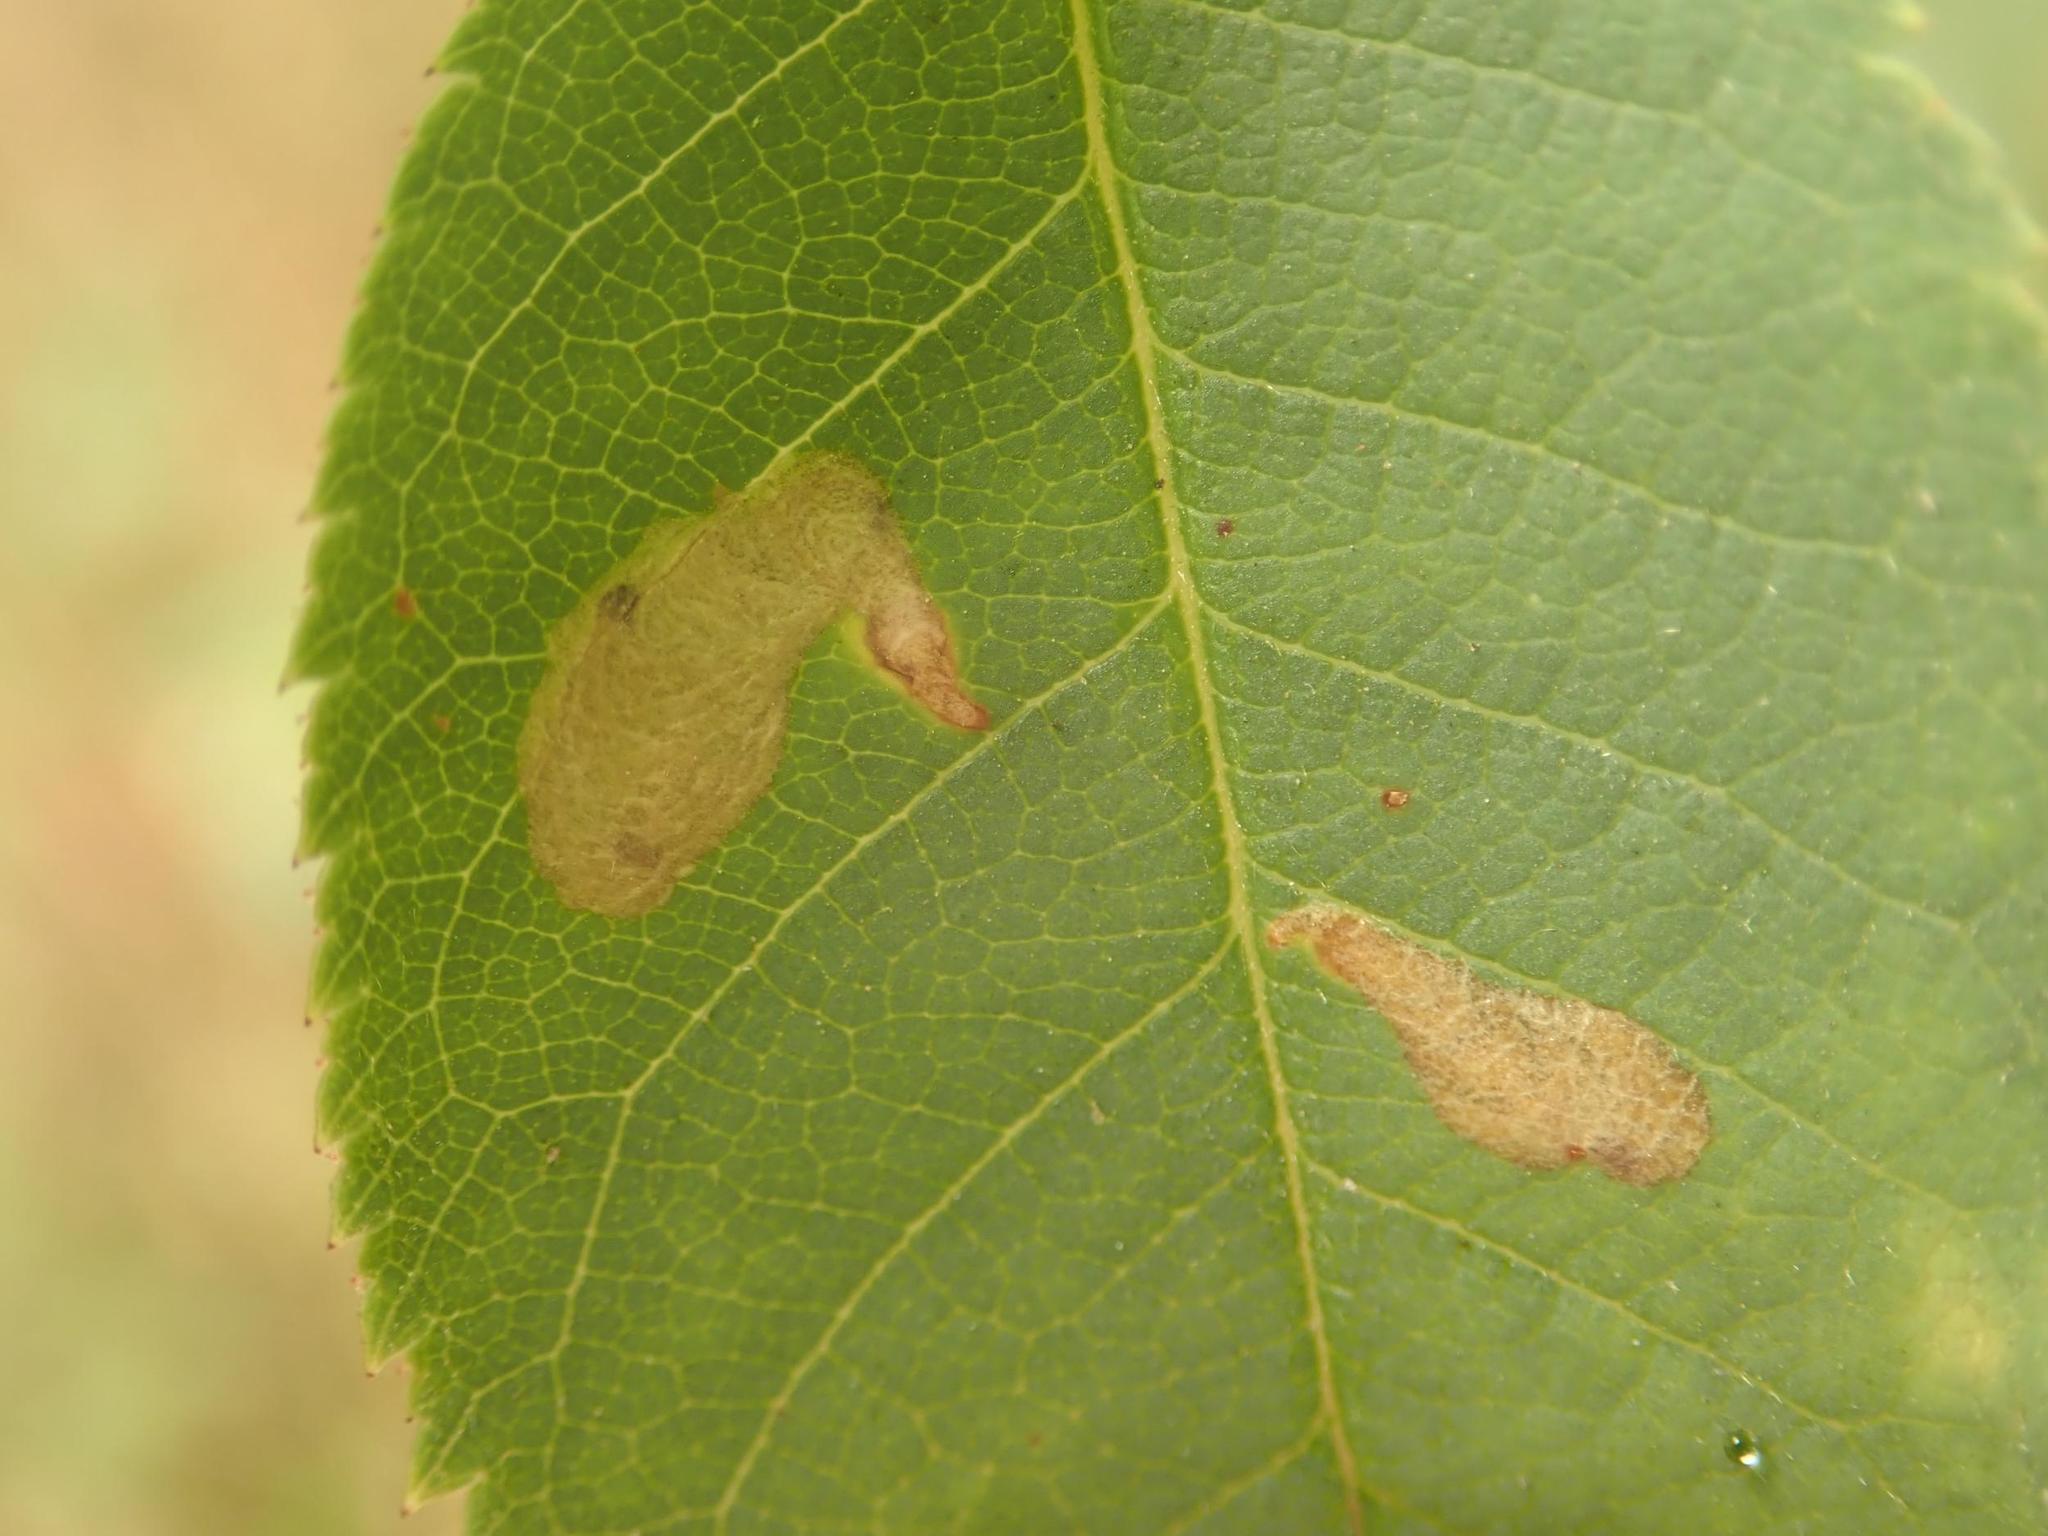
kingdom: Animalia
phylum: Arthropoda
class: Insecta
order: Lepidoptera
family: Tischeriidae
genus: Coptotriche
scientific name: Coptotriche angusticolella
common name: Rose carl
